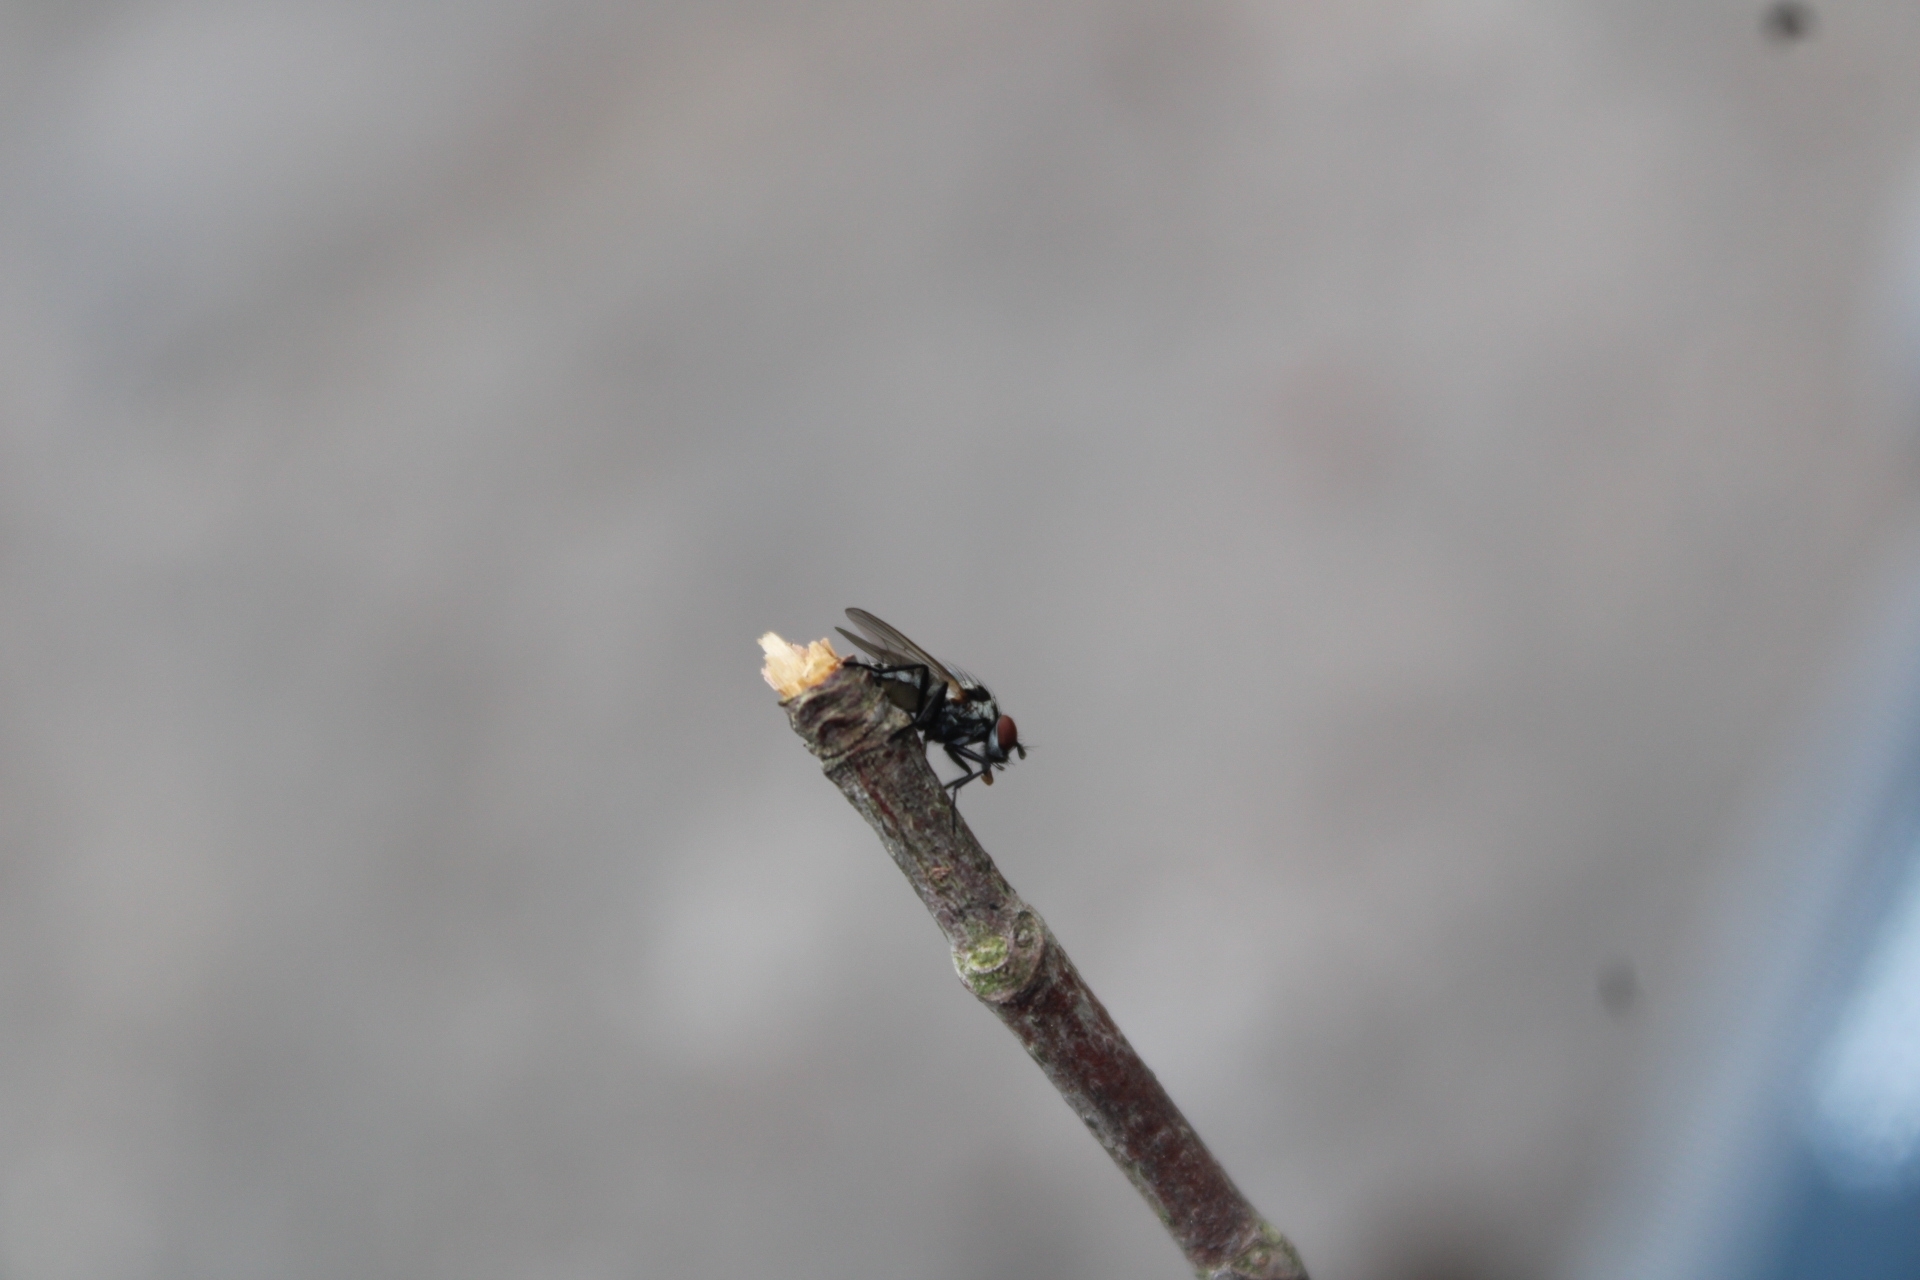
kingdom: Animalia
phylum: Arthropoda
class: Insecta
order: Diptera
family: Anthomyiidae
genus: Anthomyia
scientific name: Anthomyia oculifera
